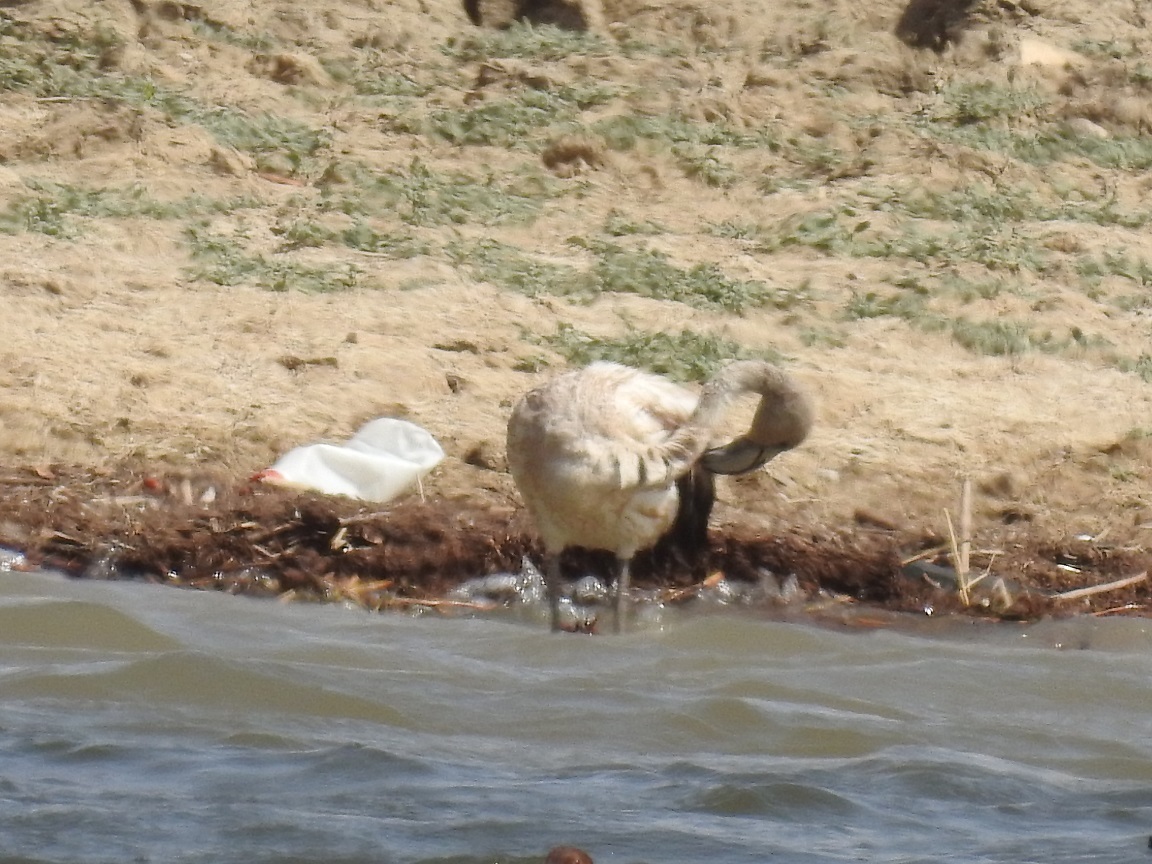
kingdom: Animalia
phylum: Chordata
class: Aves
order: Phoenicopteriformes
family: Phoenicopteridae
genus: Phoenicopterus
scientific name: Phoenicopterus roseus
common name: Greater flamingo
